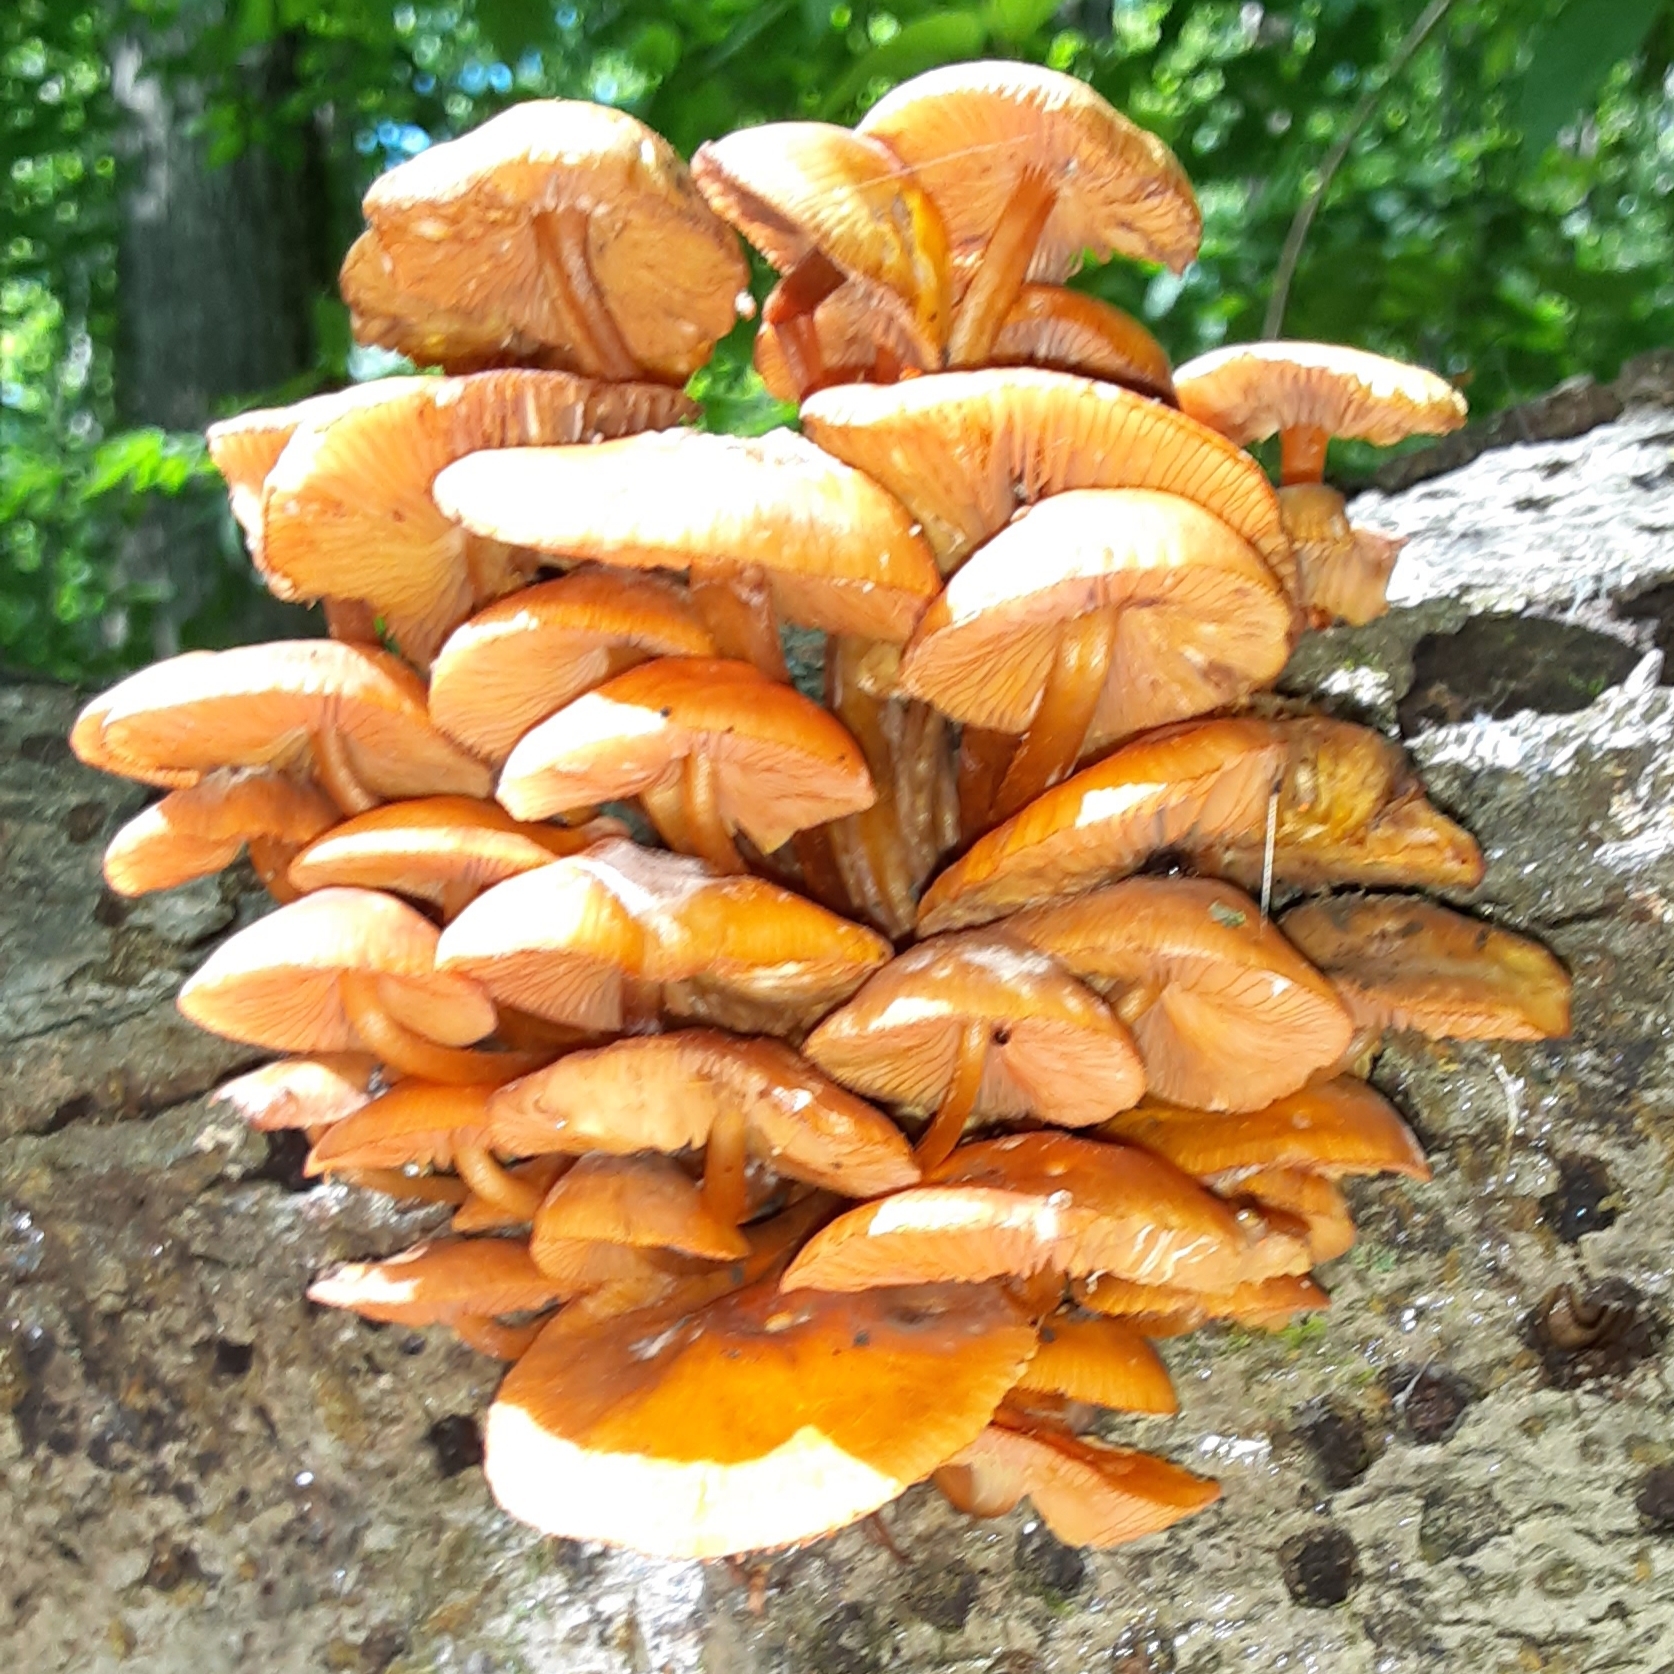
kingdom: Fungi
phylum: Basidiomycota
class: Agaricomycetes
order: Agaricales
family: Mycenaceae
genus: Mycena
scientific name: Mycena leaiana
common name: Orange mycena
